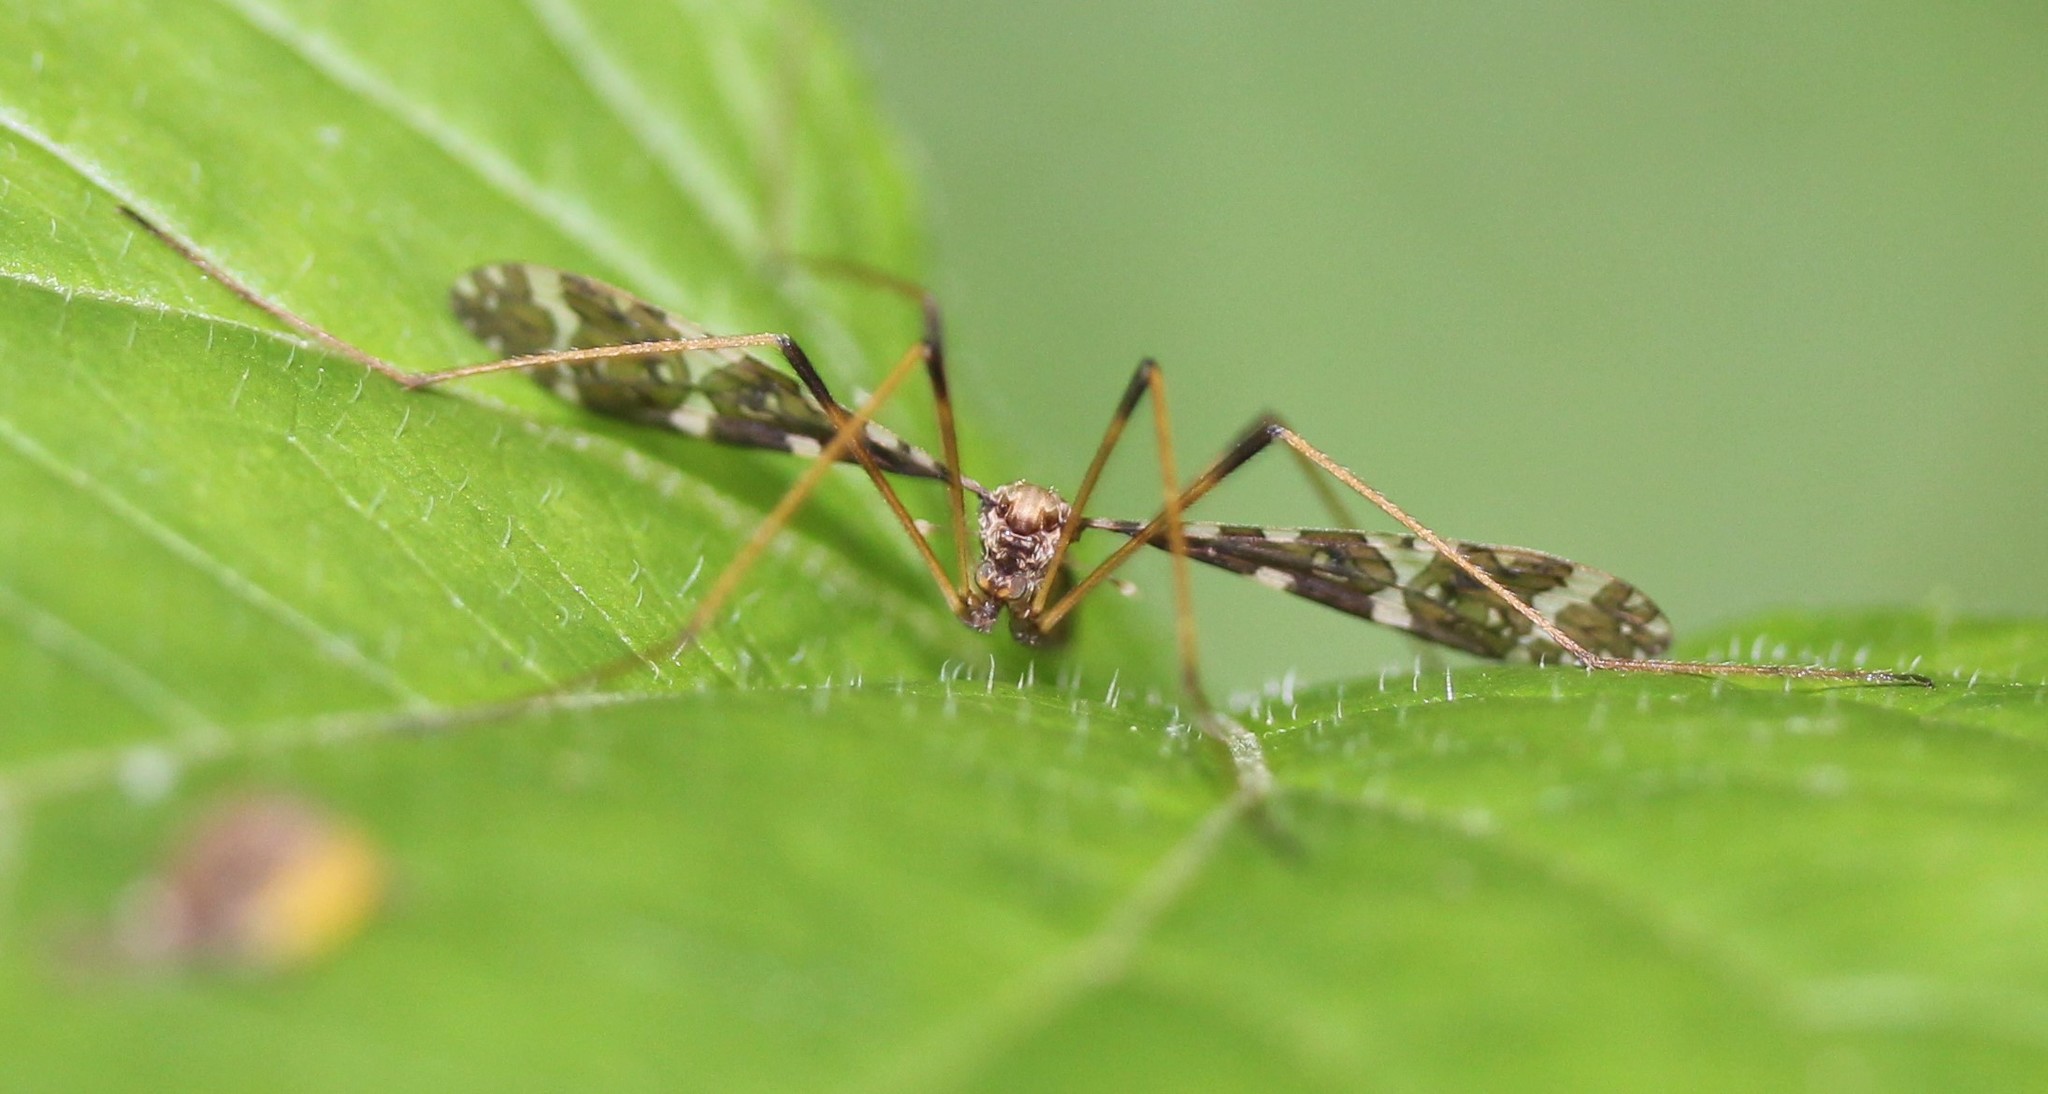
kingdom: Animalia
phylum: Arthropoda
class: Insecta
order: Diptera
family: Limoniidae
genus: Epiphragma
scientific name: Epiphragma fasciapenne
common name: Band-winged crane fly
